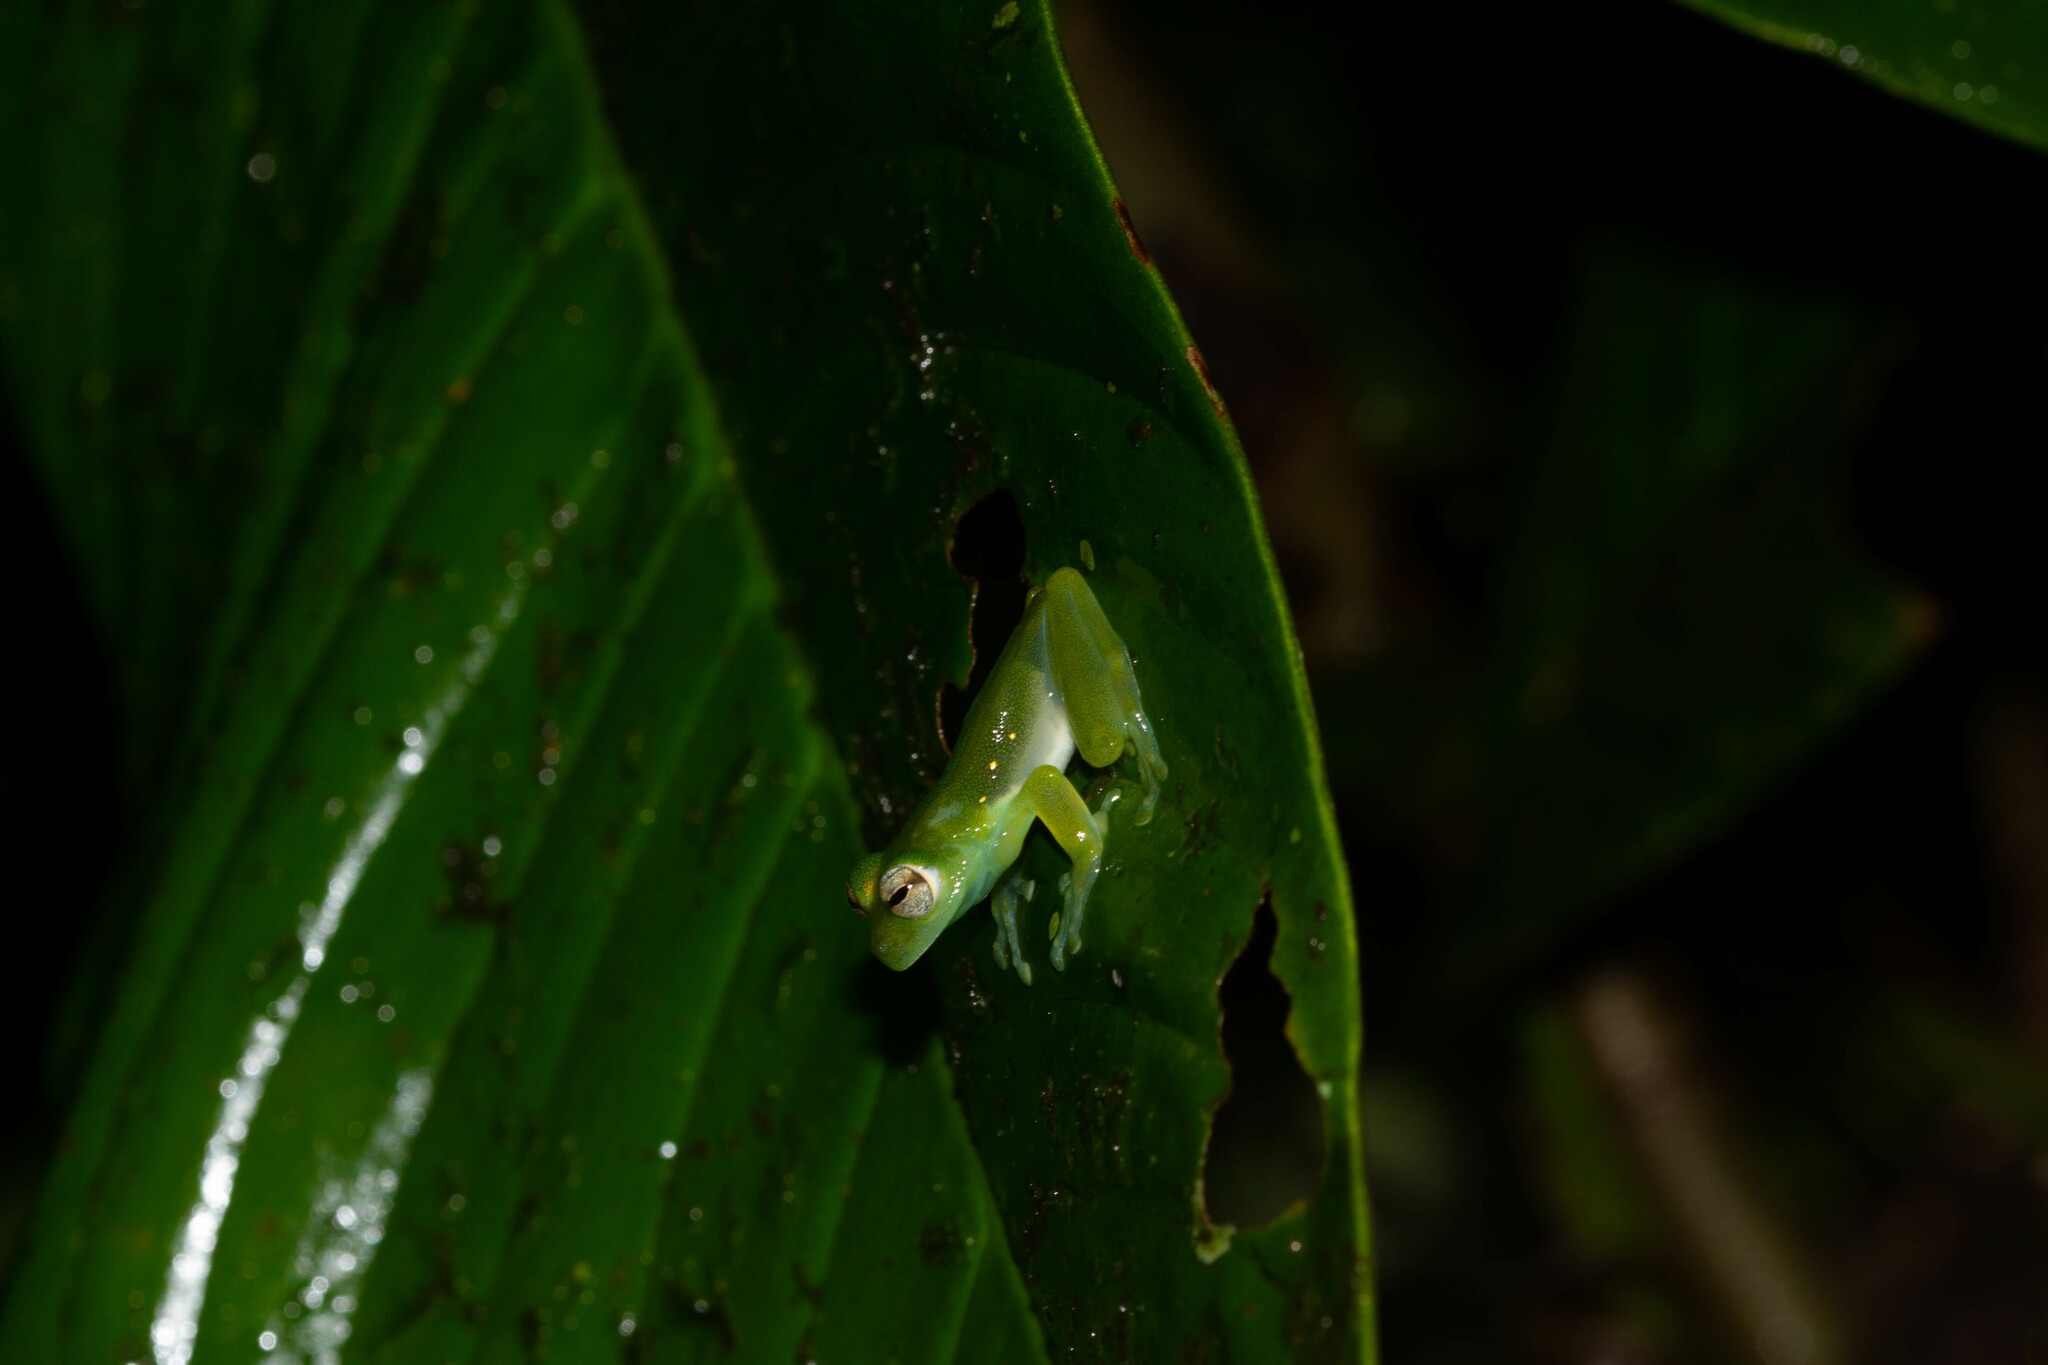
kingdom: Animalia
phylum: Chordata
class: Amphibia
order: Anura
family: Centrolenidae
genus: Teratohyla
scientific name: Teratohyla midas
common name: Santa cecilia cochran frog
